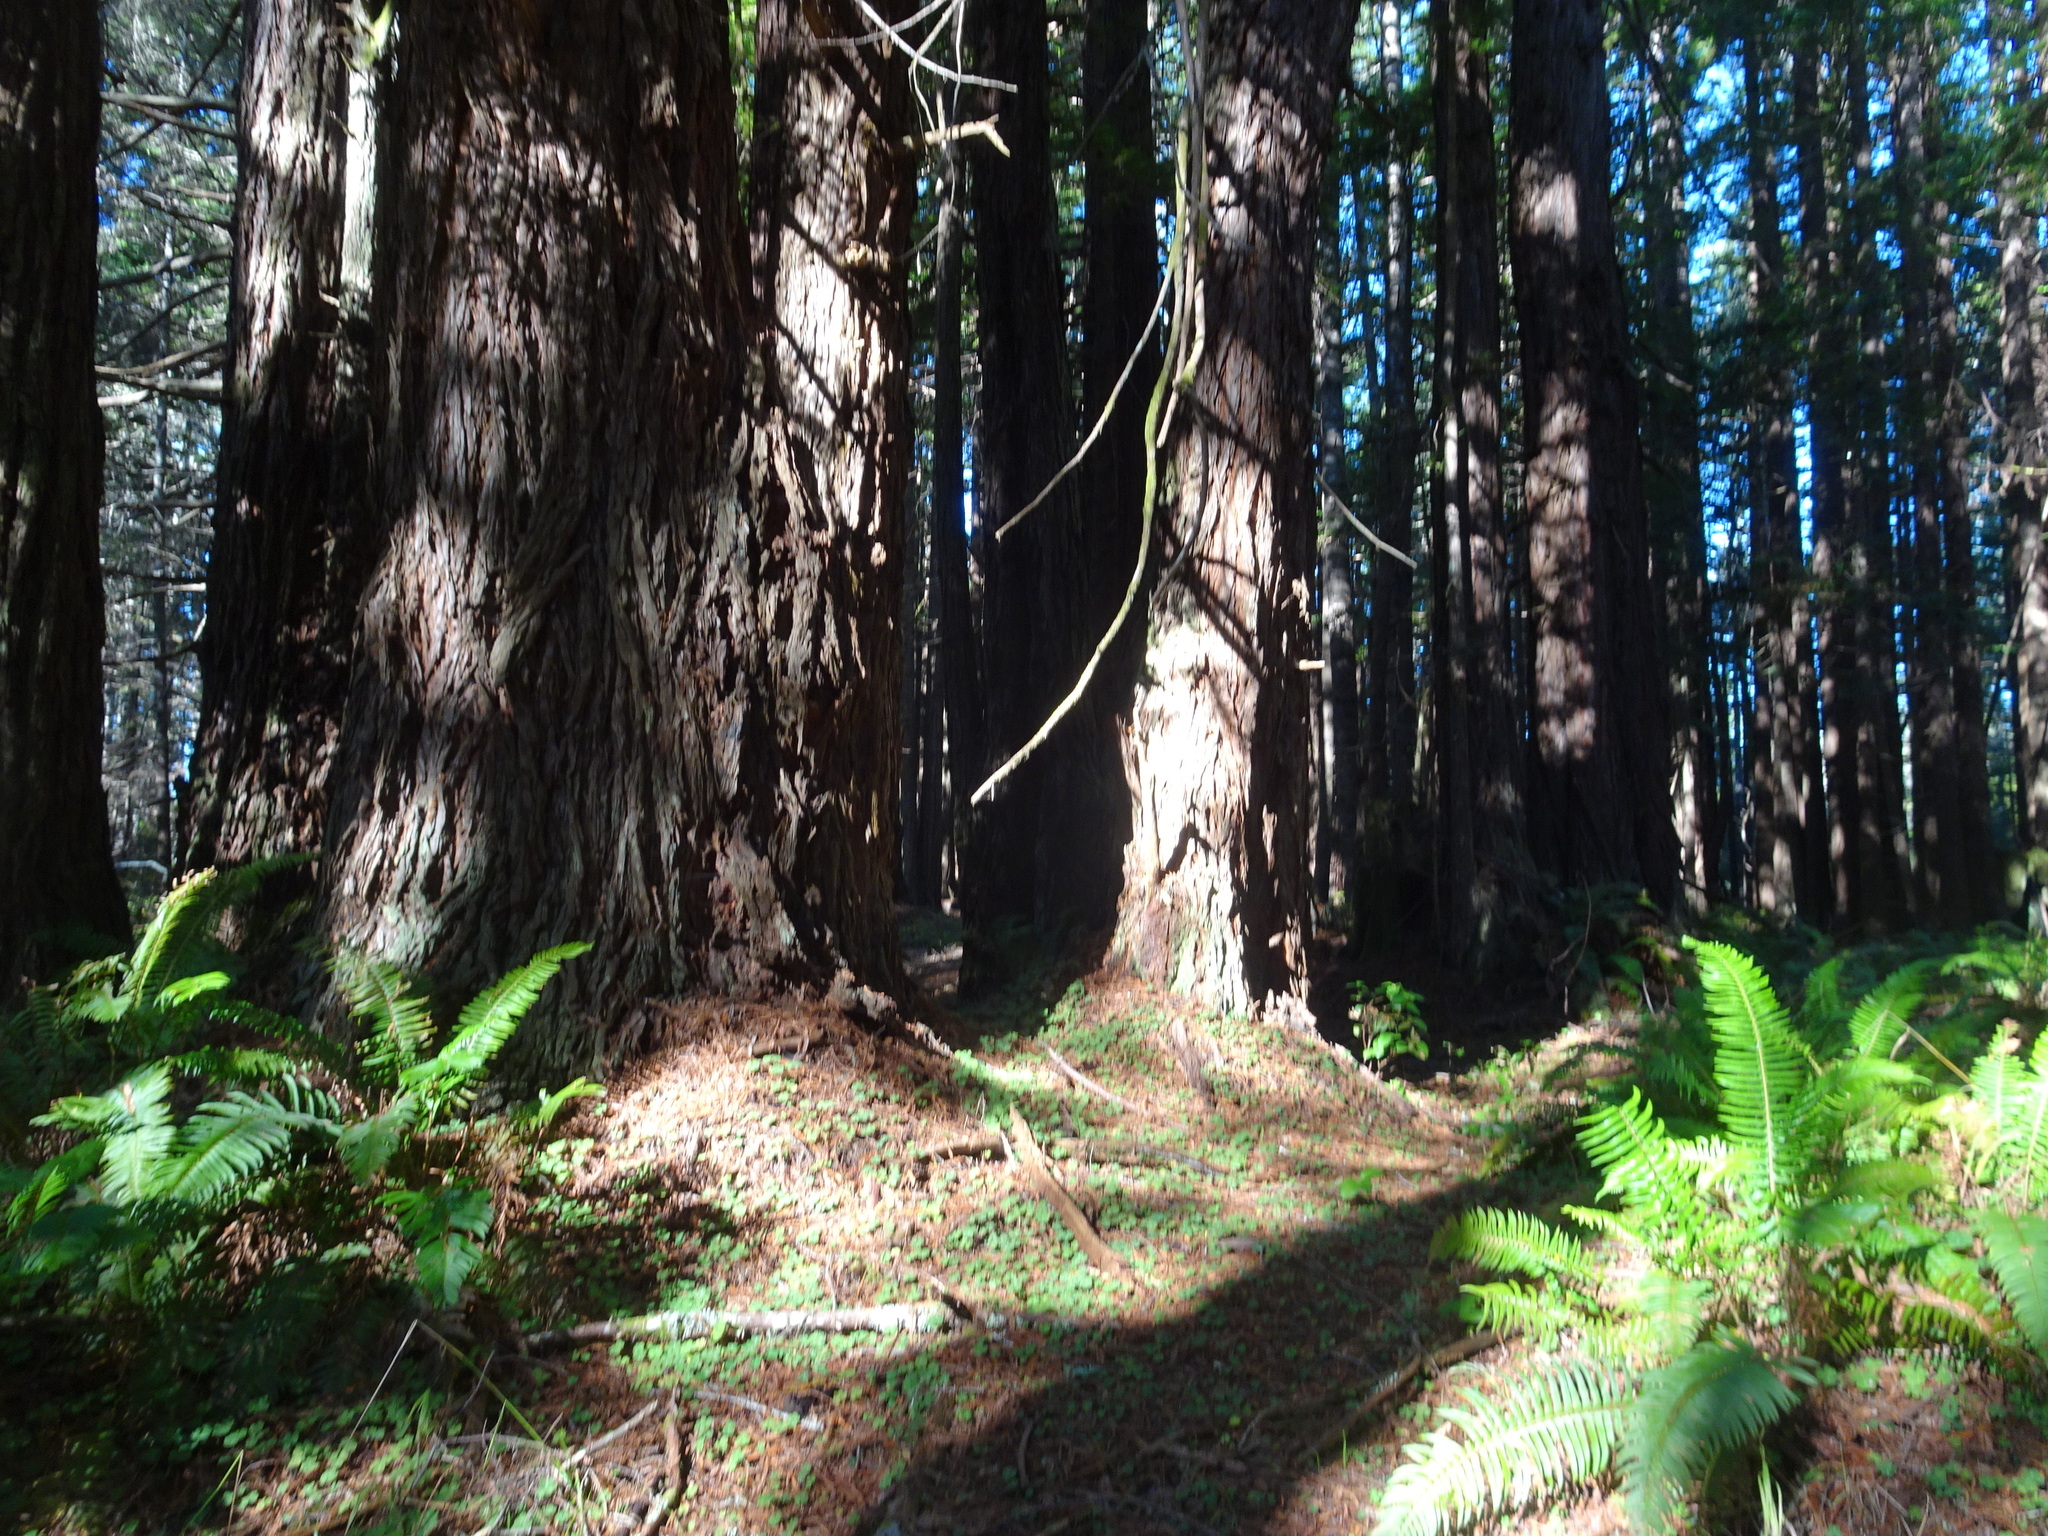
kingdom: Plantae
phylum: Tracheophyta
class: Pinopsida
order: Pinales
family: Cupressaceae
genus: Sequoia
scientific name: Sequoia sempervirens
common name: Coast redwood
